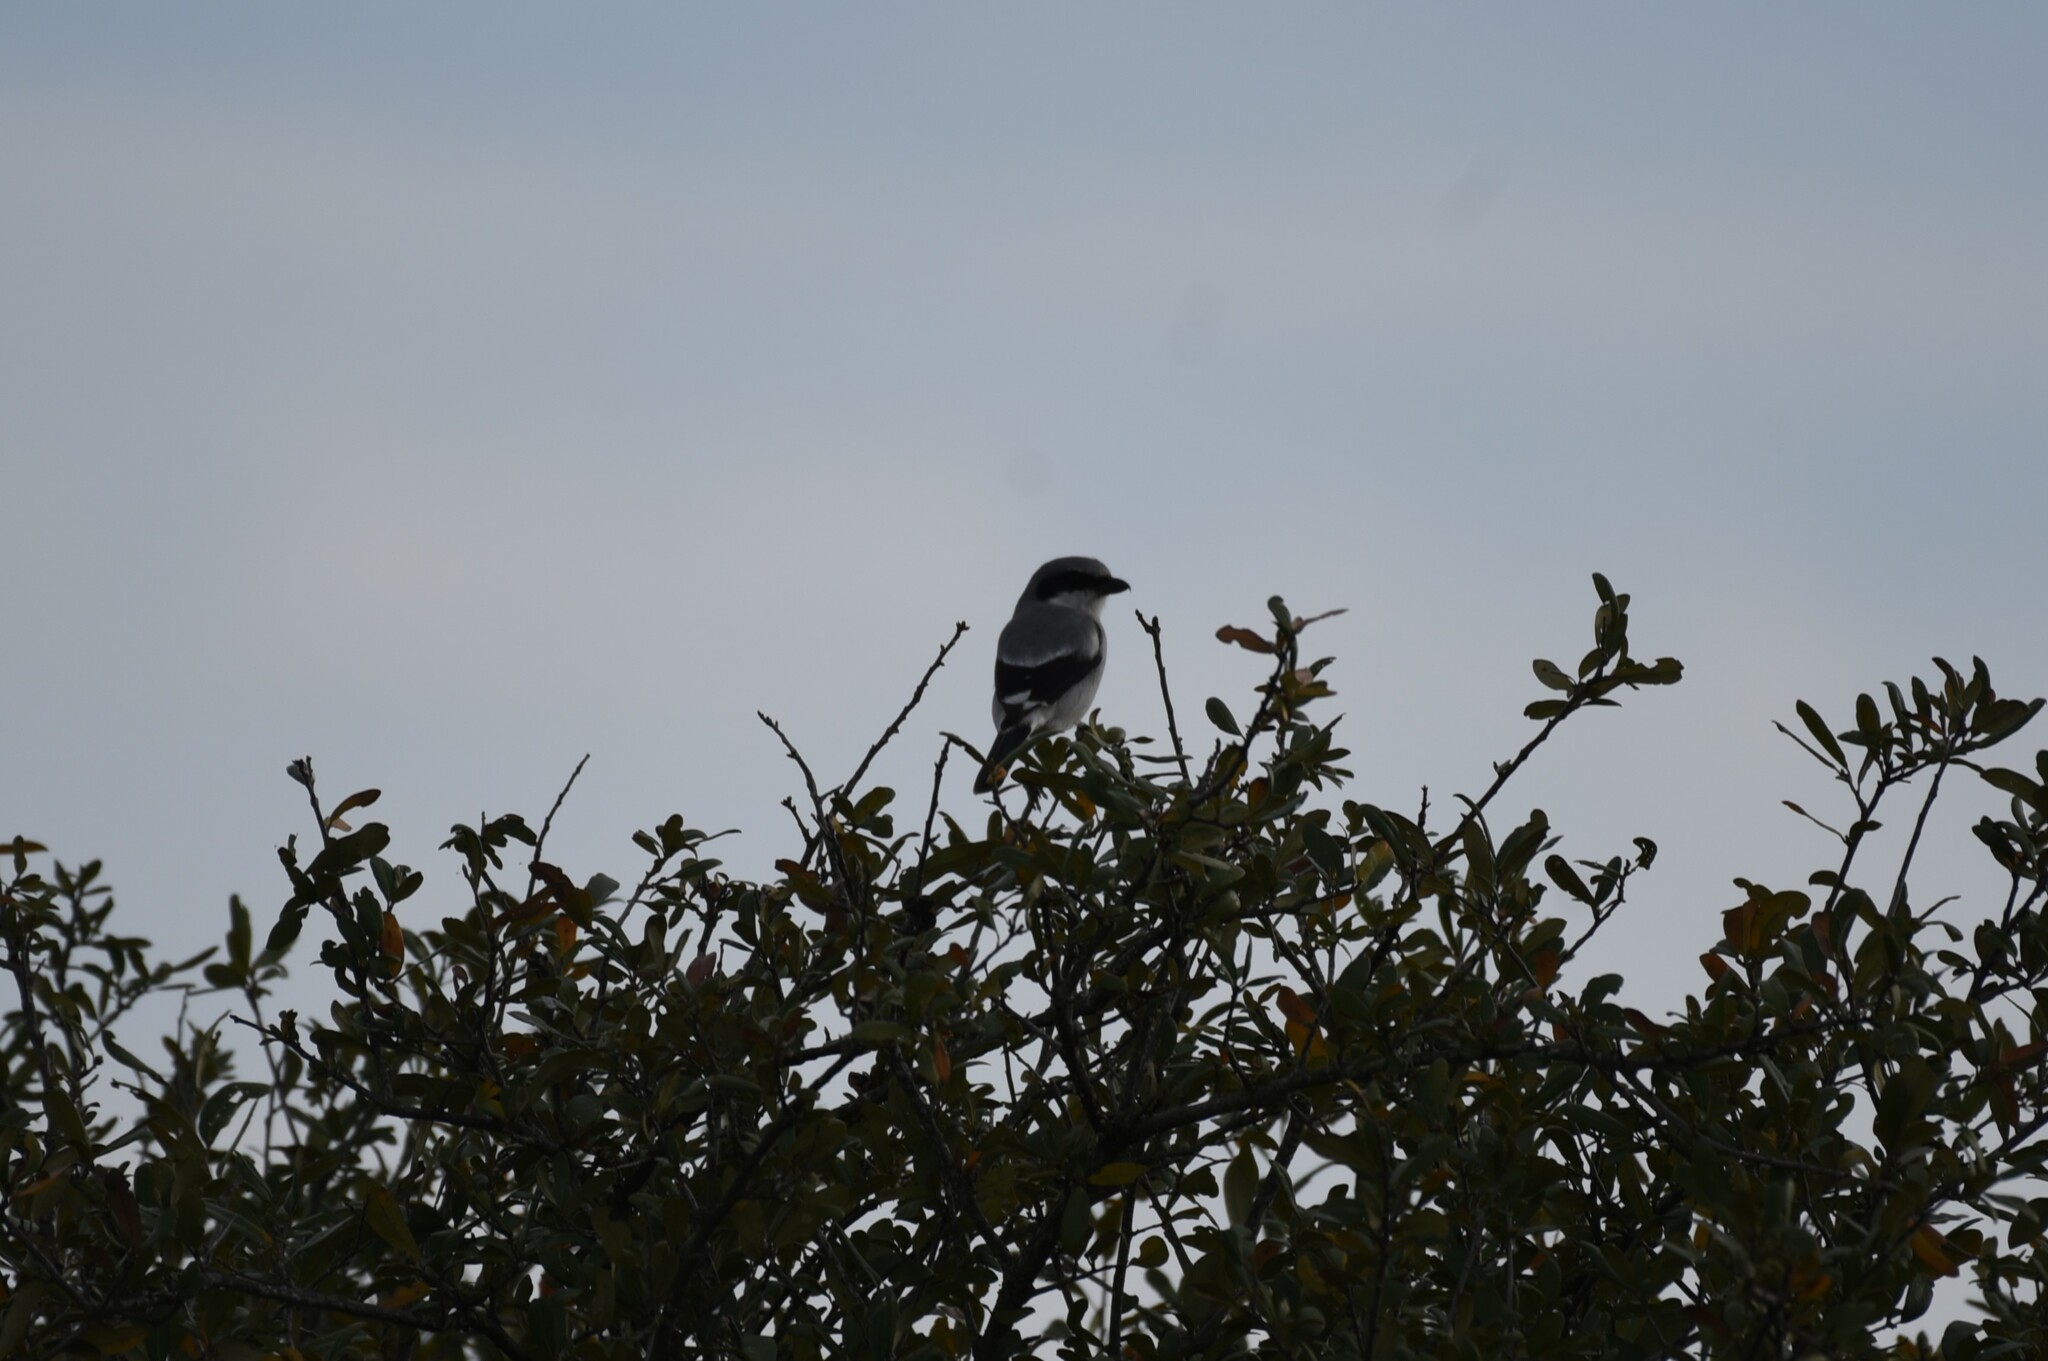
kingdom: Animalia
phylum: Chordata
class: Aves
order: Passeriformes
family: Laniidae
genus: Lanius
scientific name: Lanius ludovicianus
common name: Loggerhead shrike
